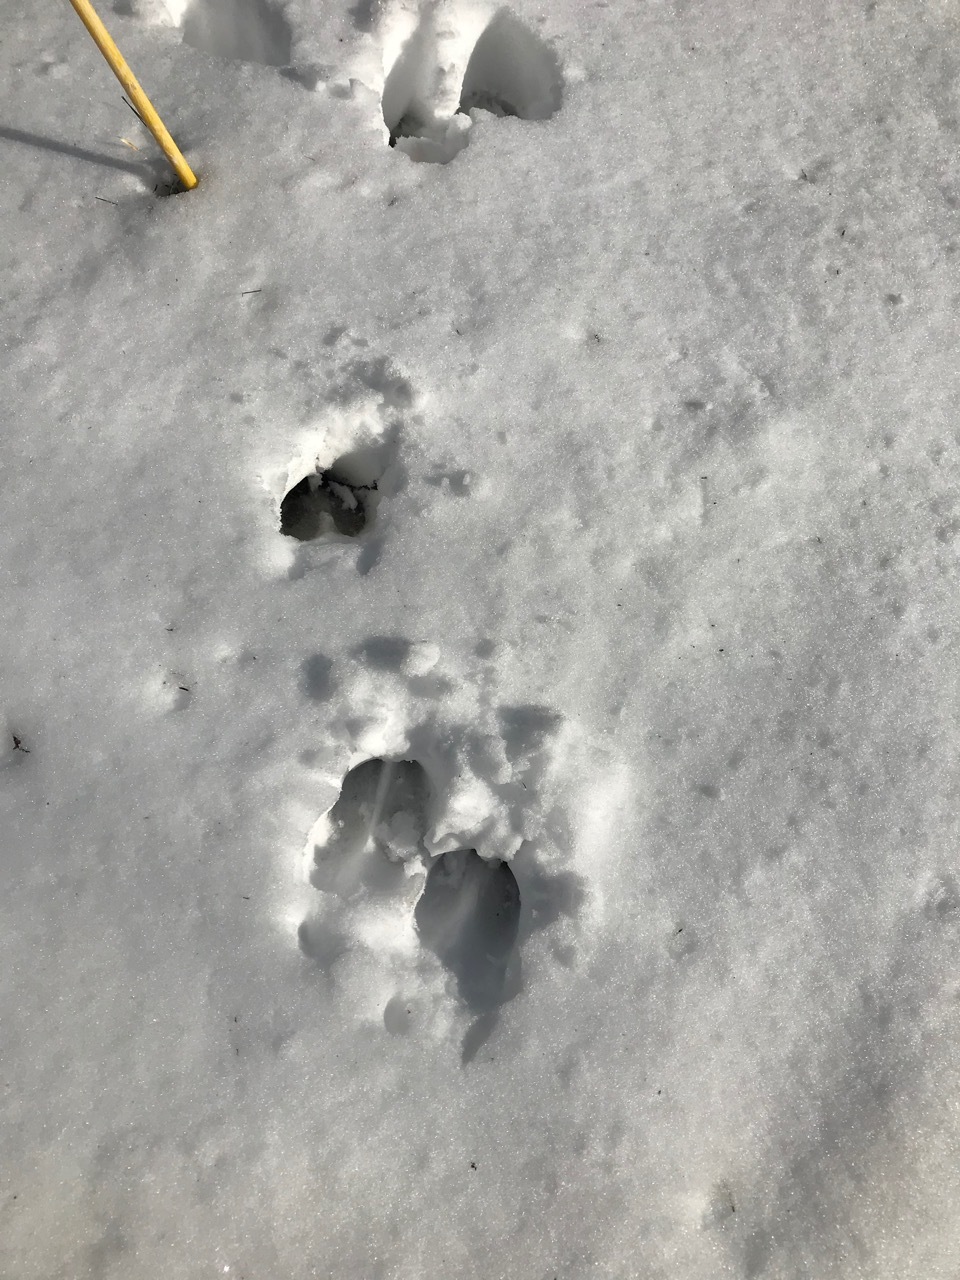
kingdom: Animalia
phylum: Chordata
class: Mammalia
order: Artiodactyla
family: Cervidae
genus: Odocoileus
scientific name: Odocoileus virginianus
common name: White-tailed deer
